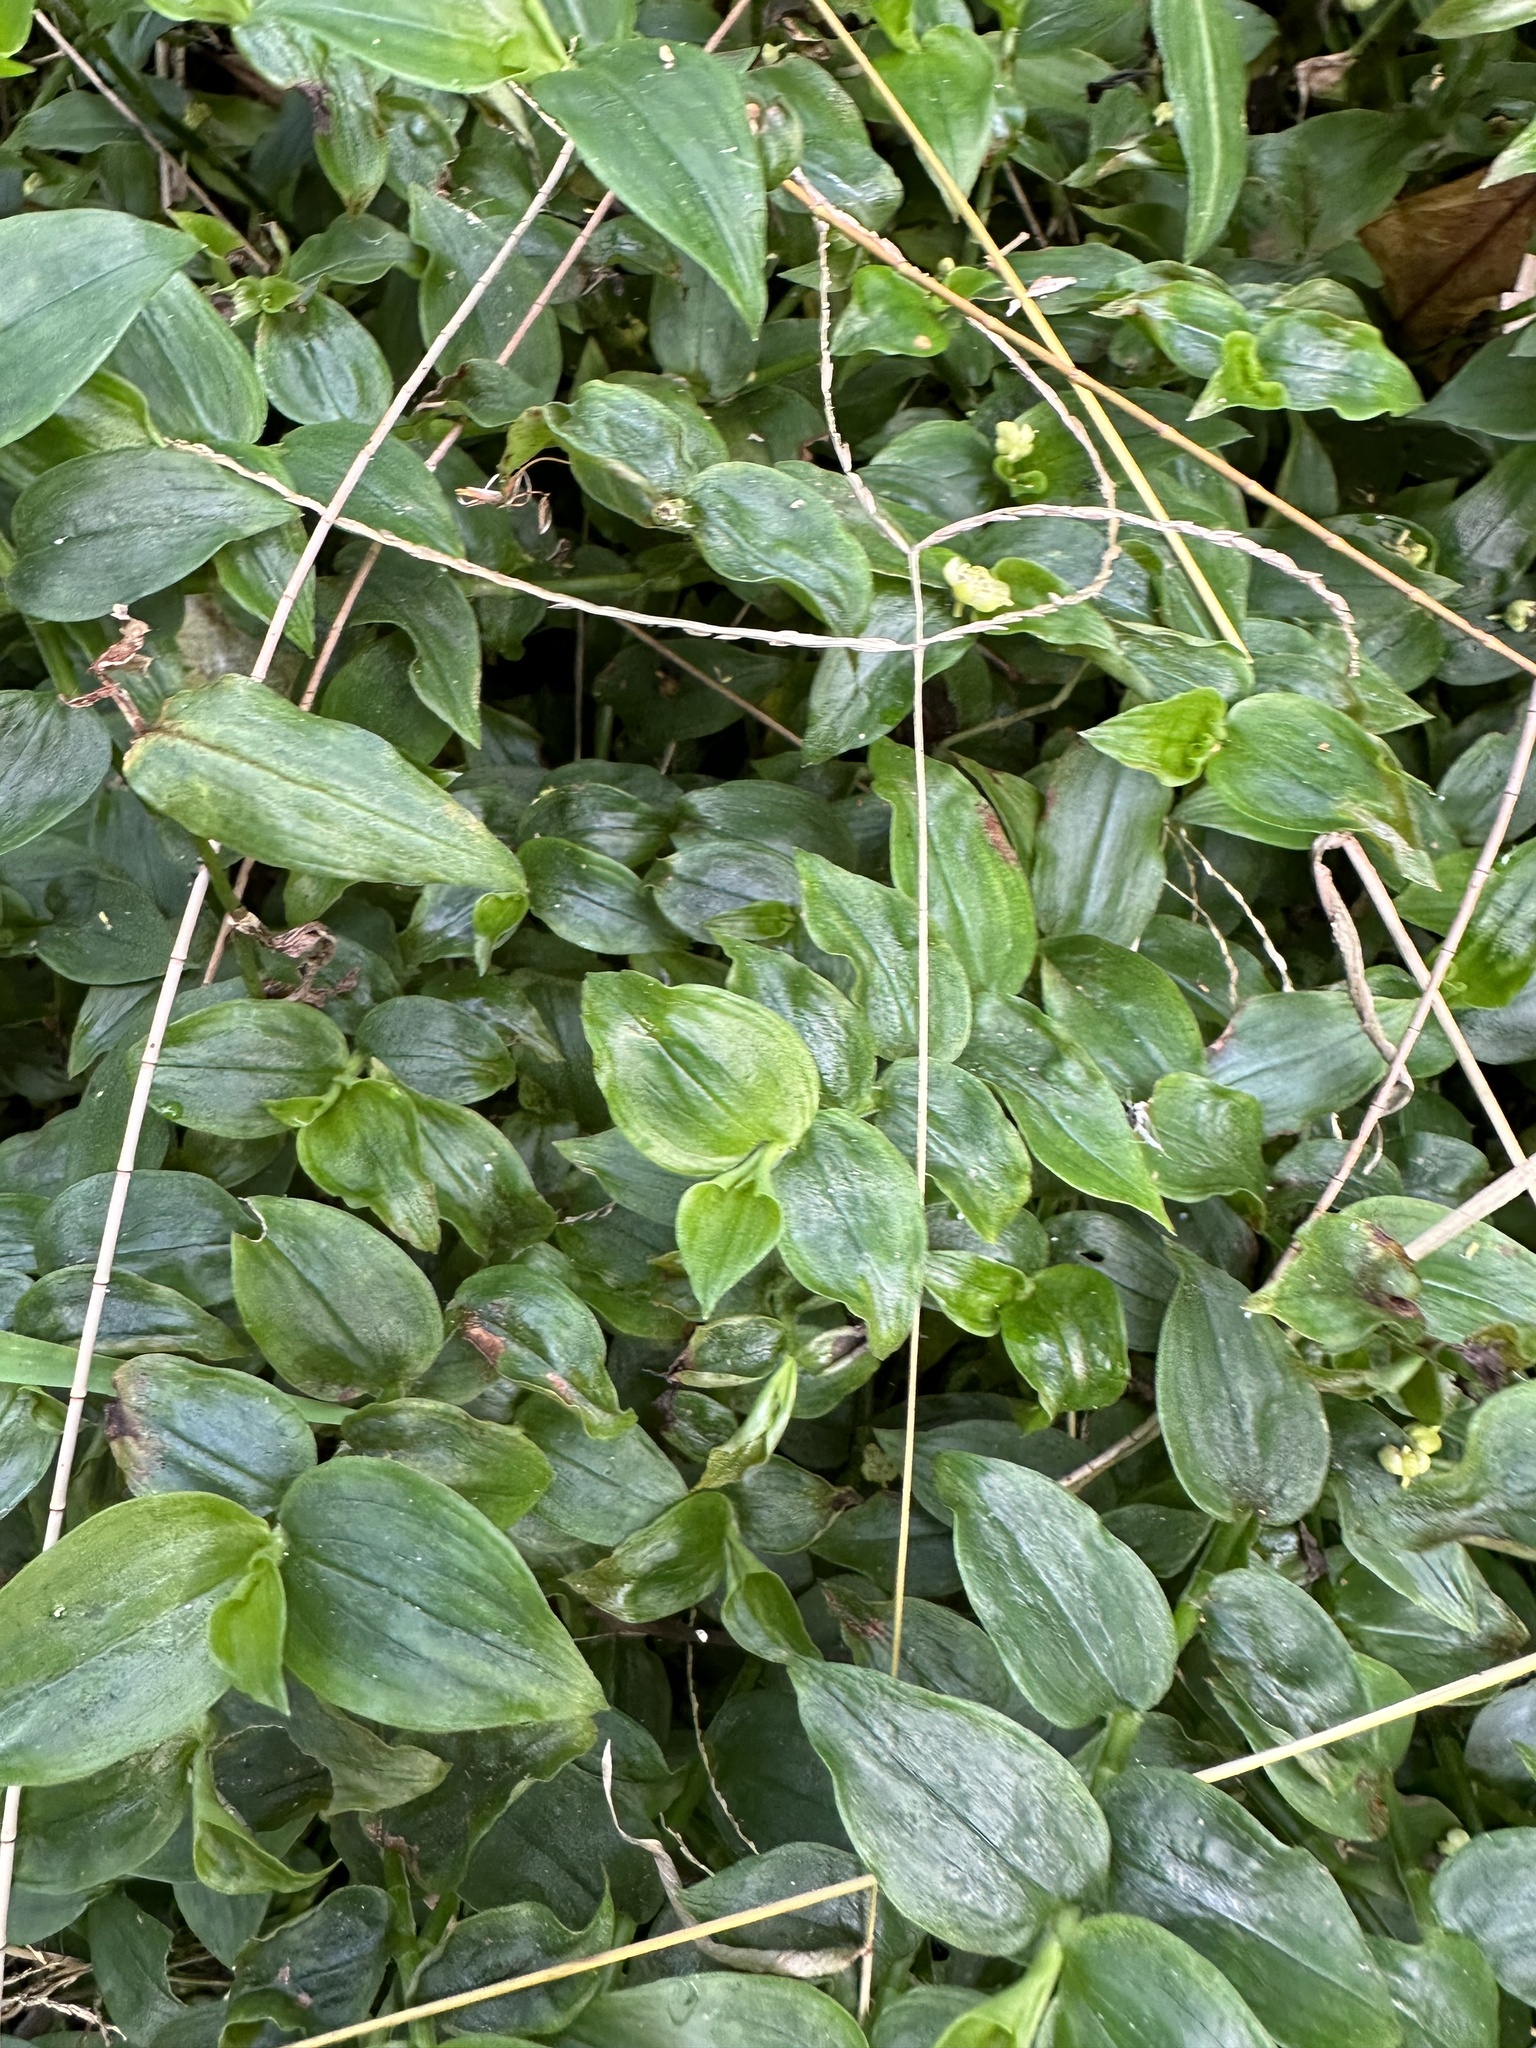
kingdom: Plantae
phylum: Tracheophyta
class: Liliopsida
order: Commelinales
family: Commelinaceae
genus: Tradescantia
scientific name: Tradescantia fluminensis
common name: Wandering-jew
